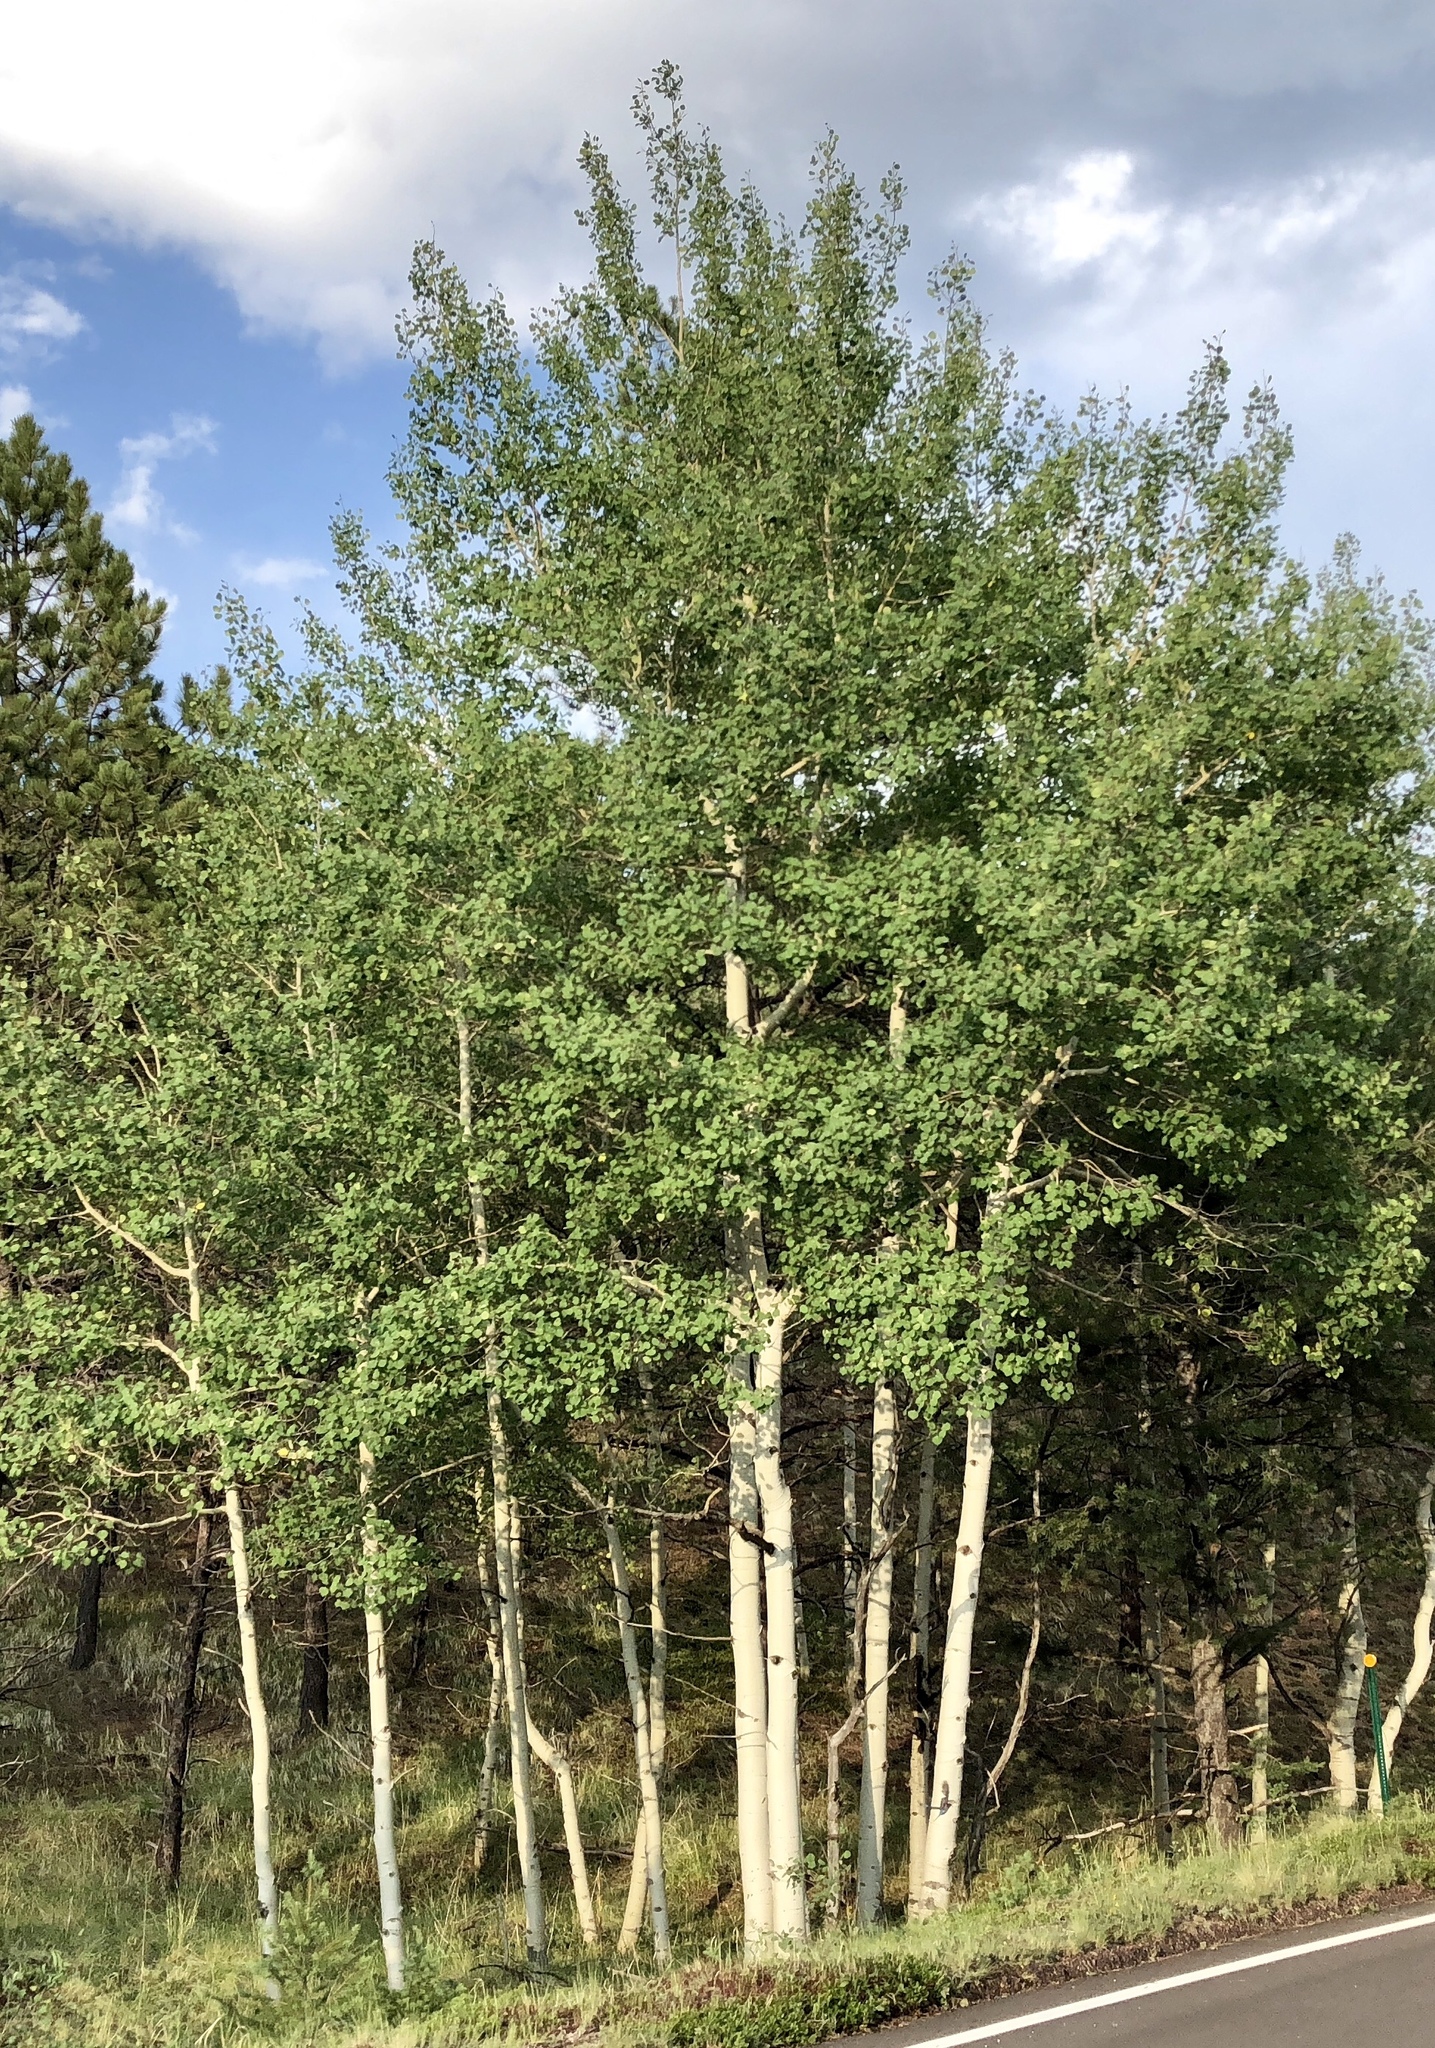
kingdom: Plantae
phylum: Tracheophyta
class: Magnoliopsida
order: Malpighiales
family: Salicaceae
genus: Populus
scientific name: Populus tremuloides
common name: Quaking aspen
